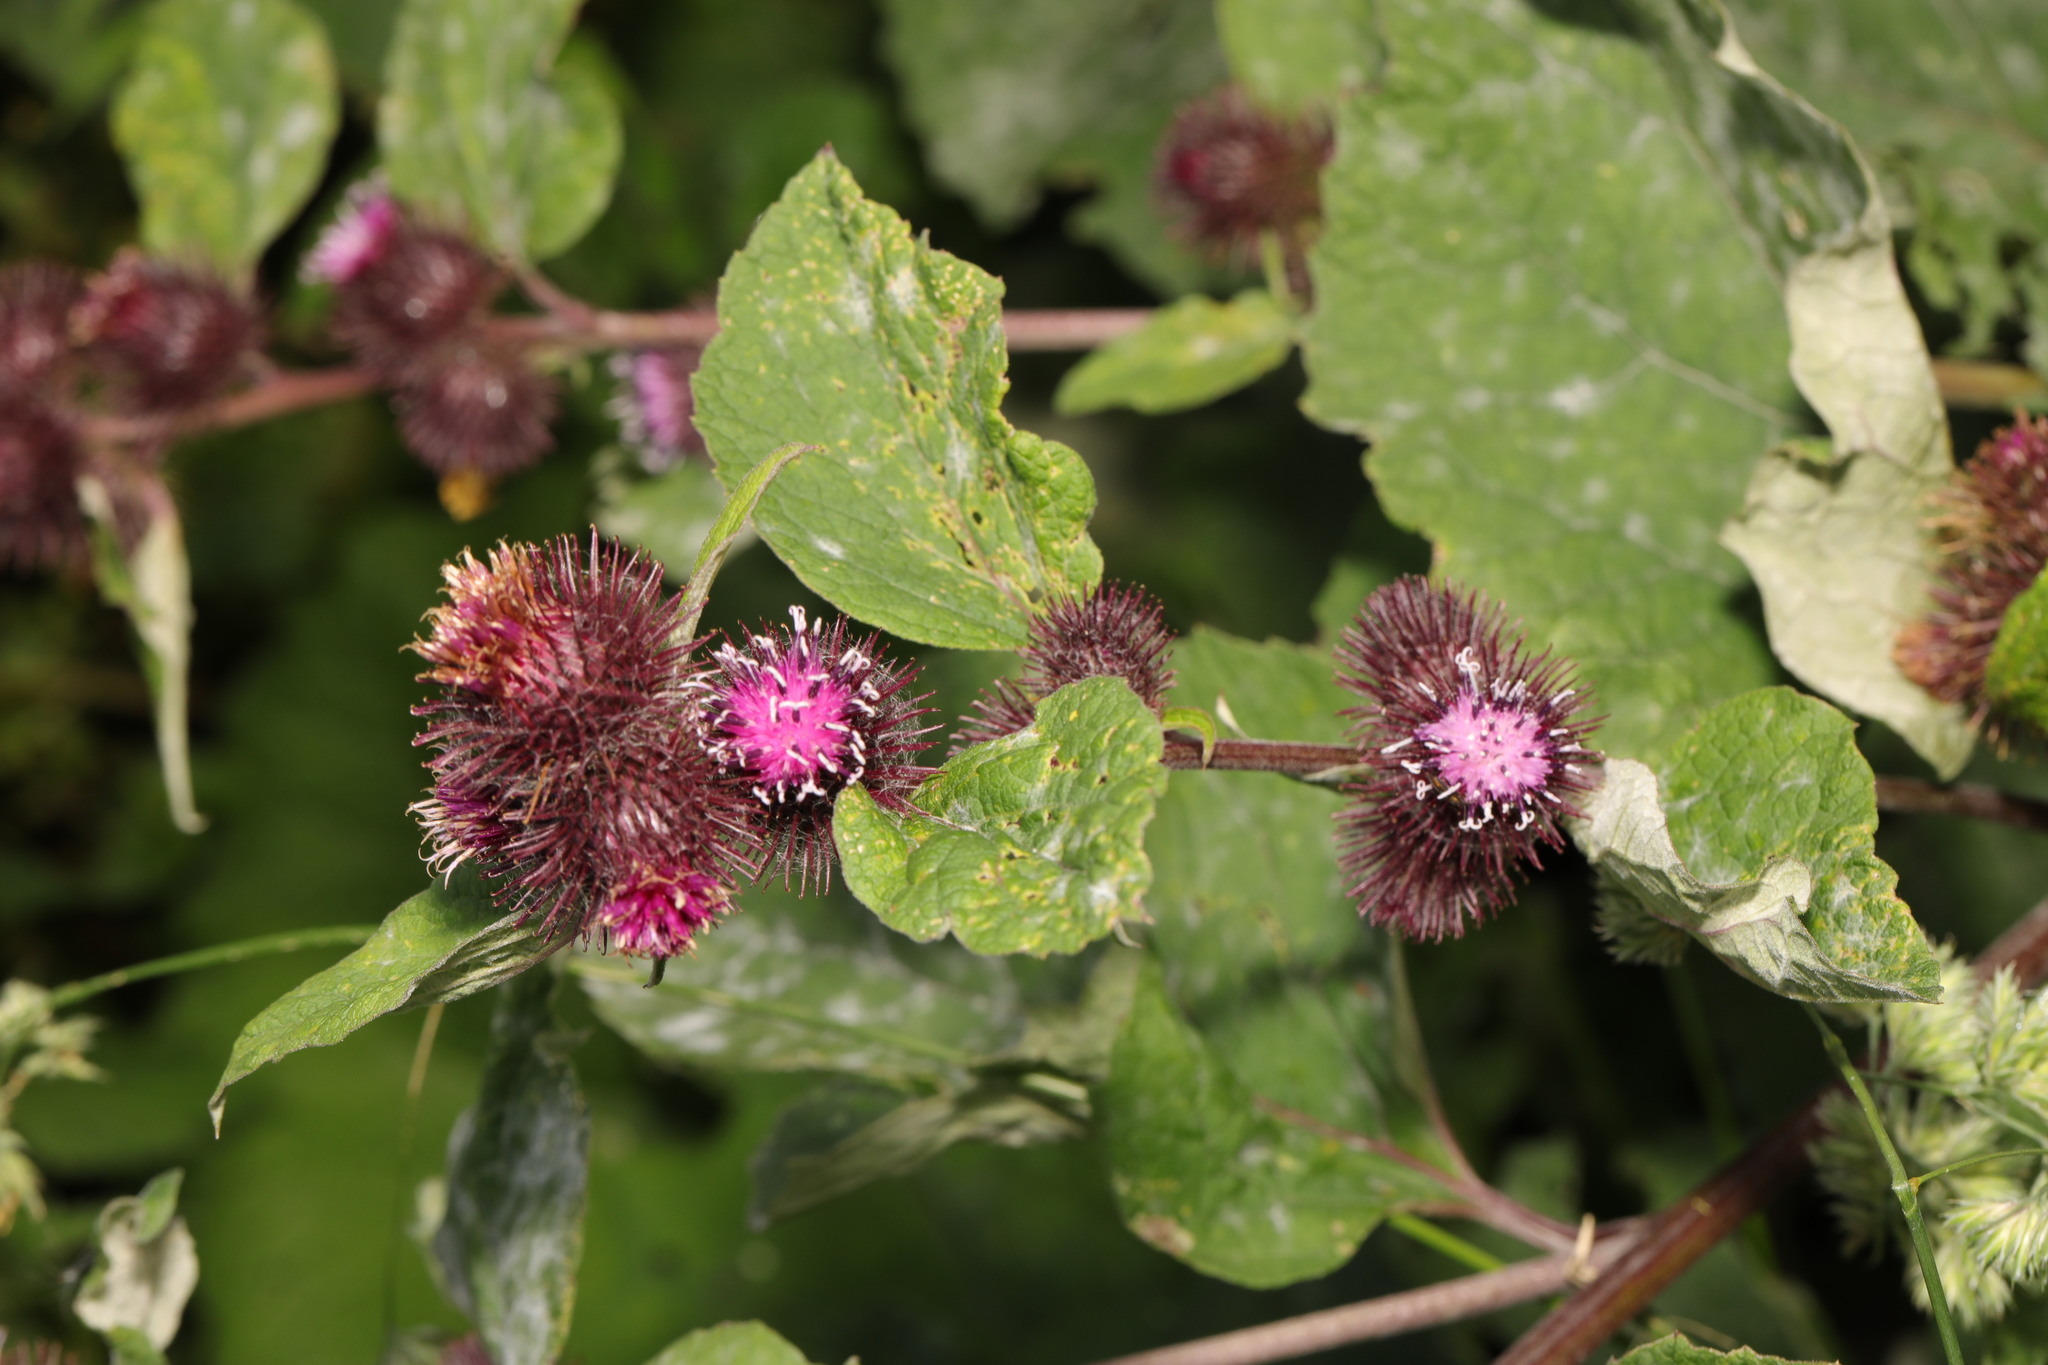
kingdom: Plantae
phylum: Tracheophyta
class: Magnoliopsida
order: Asterales
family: Asteraceae
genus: Arctium
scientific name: Arctium minus
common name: Lesser burdock
